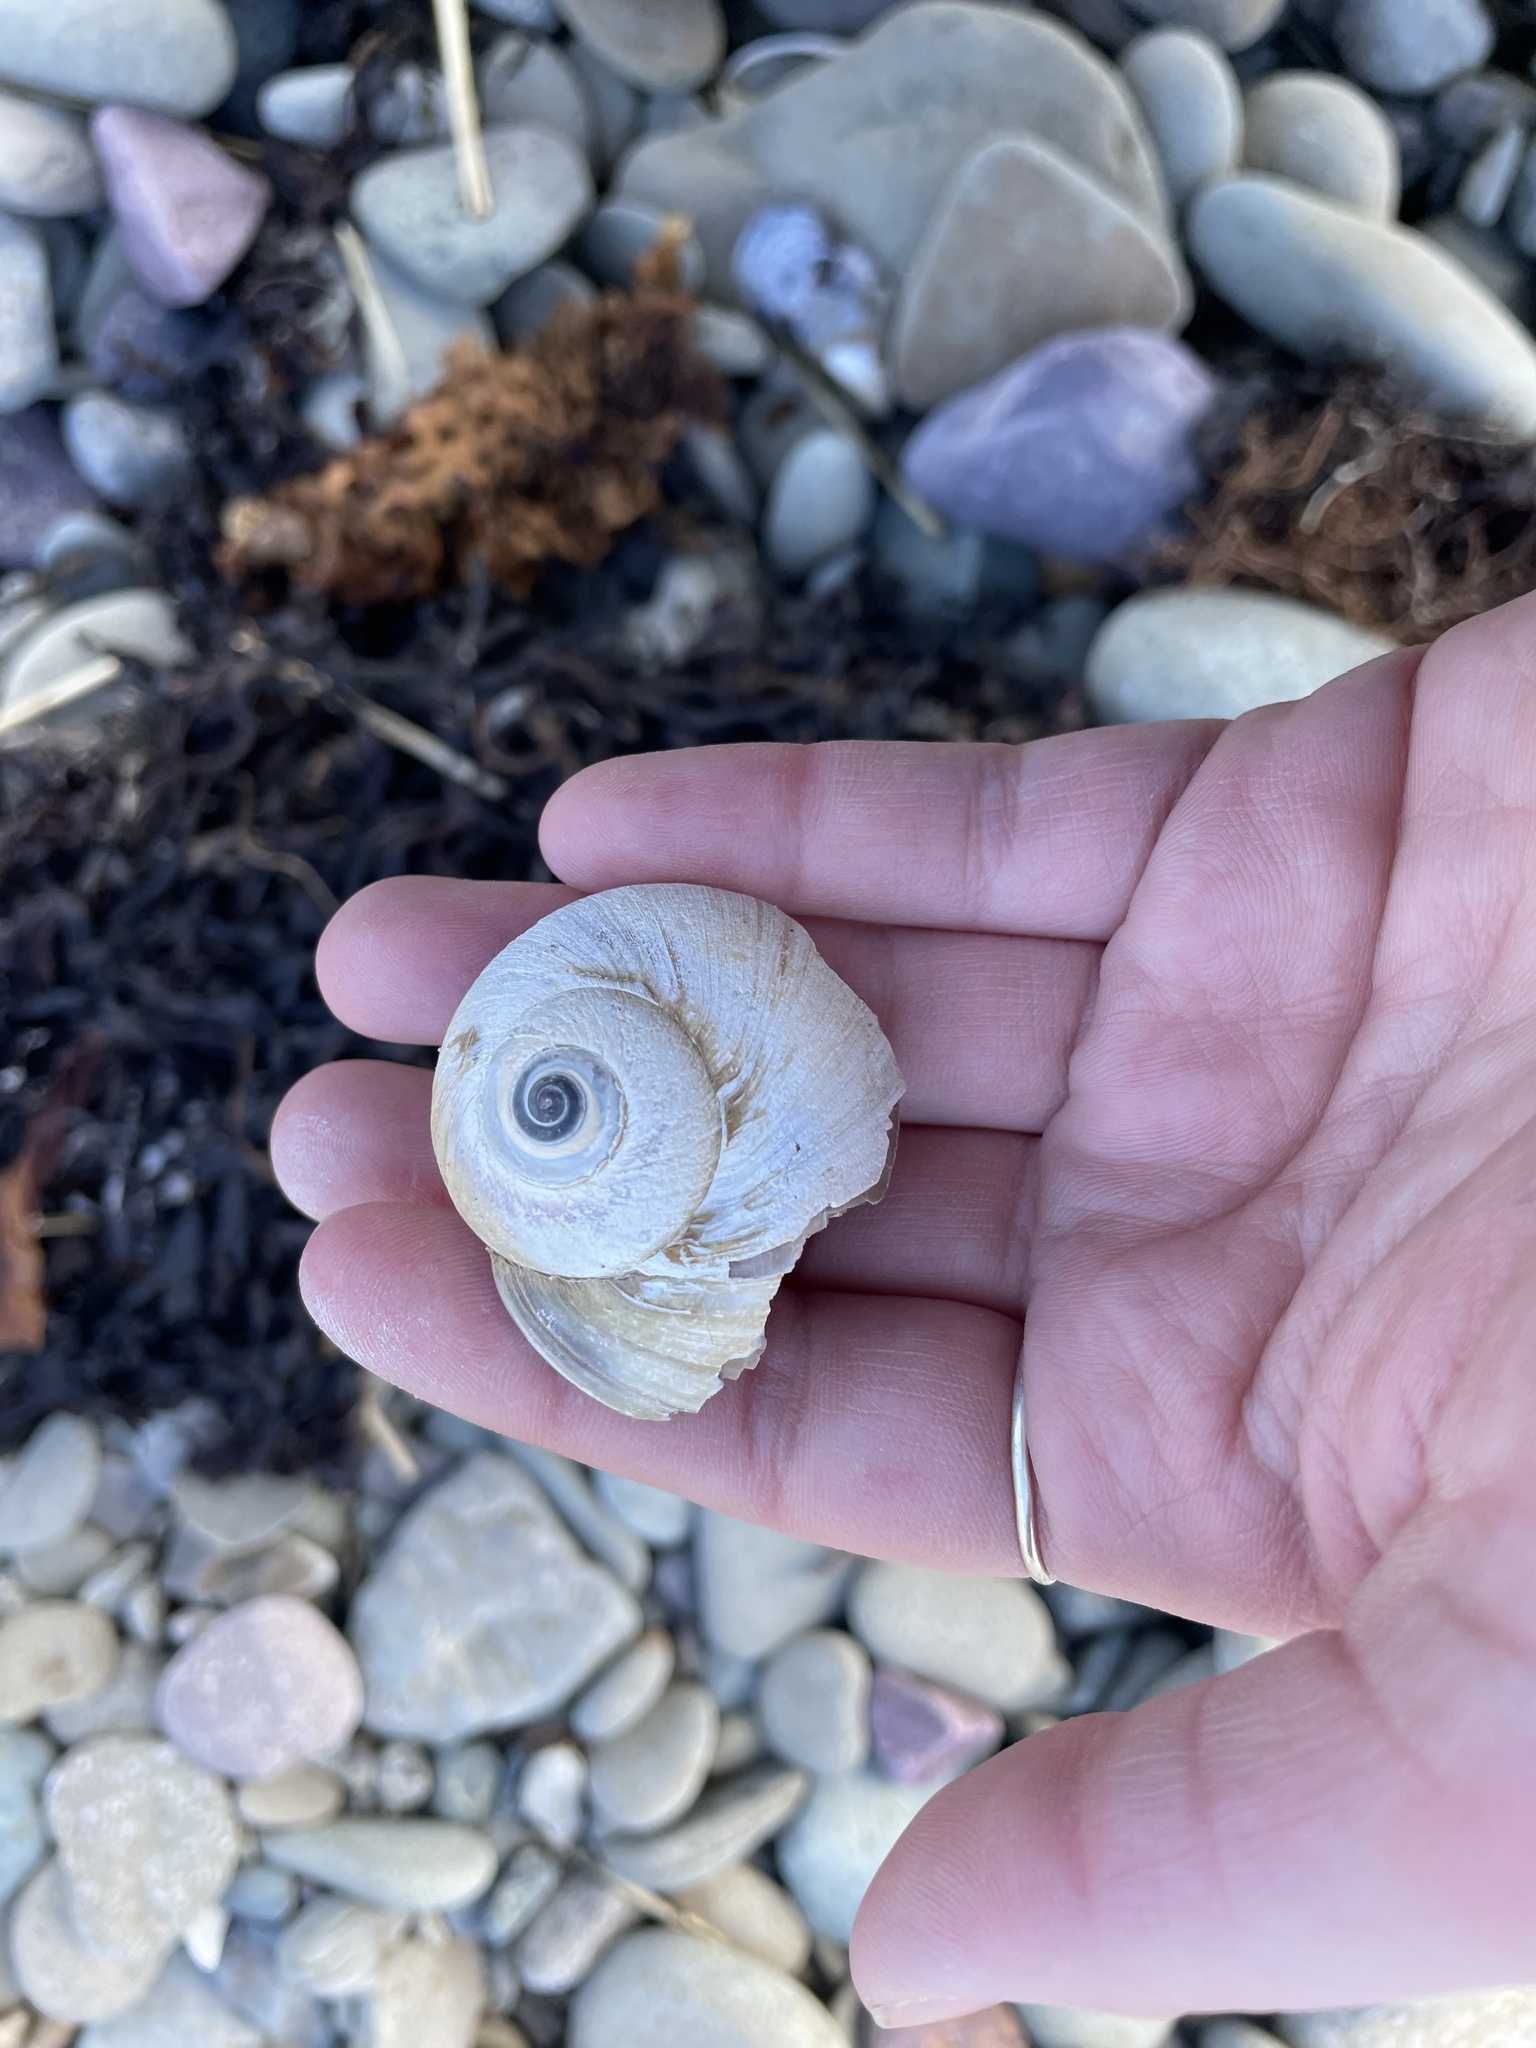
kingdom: Animalia
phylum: Mollusca
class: Gastropoda
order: Littorinimorpha
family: Naticidae
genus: Euspira
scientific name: Euspira heros
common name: Common northern moonsnail
